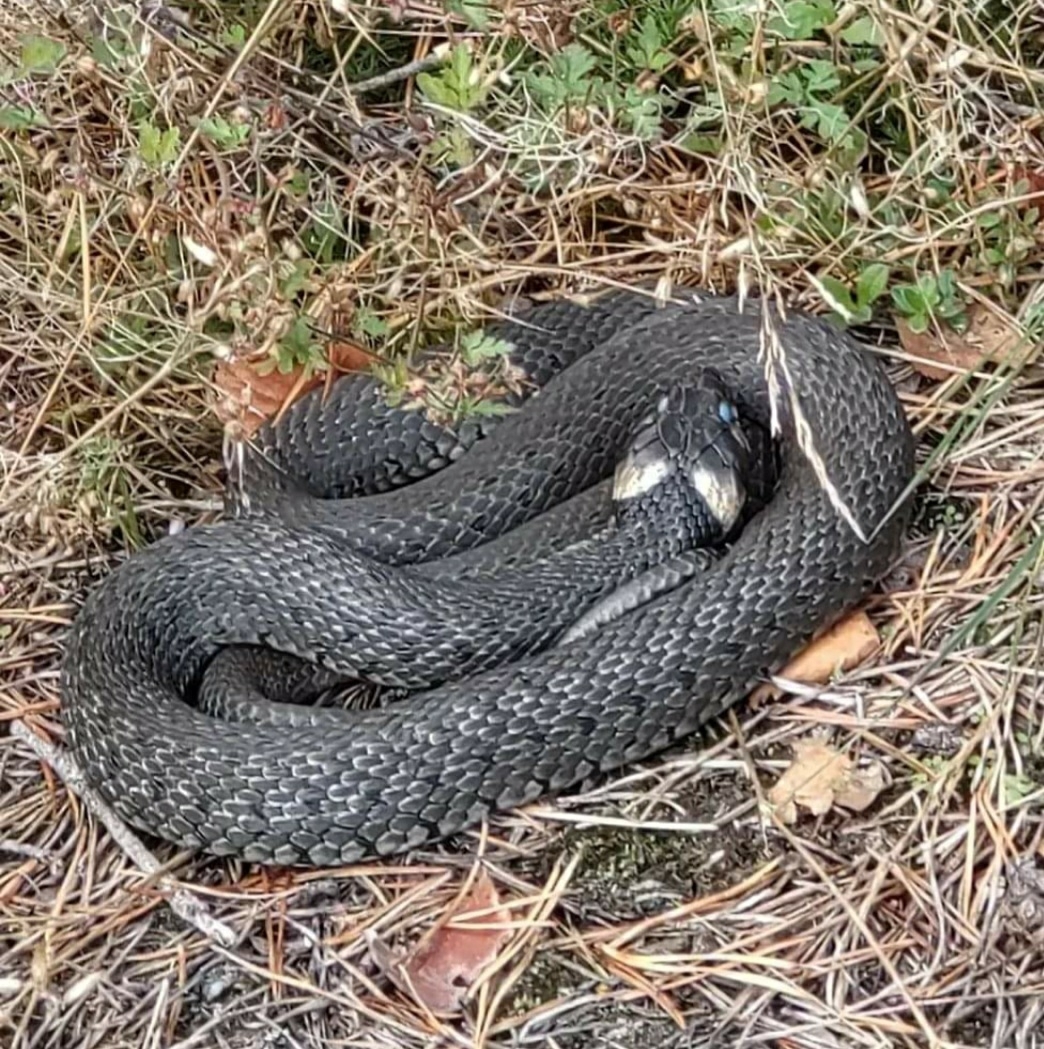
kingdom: Animalia
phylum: Chordata
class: Squamata
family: Colubridae
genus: Natrix
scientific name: Natrix natrix
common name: Grass snake
